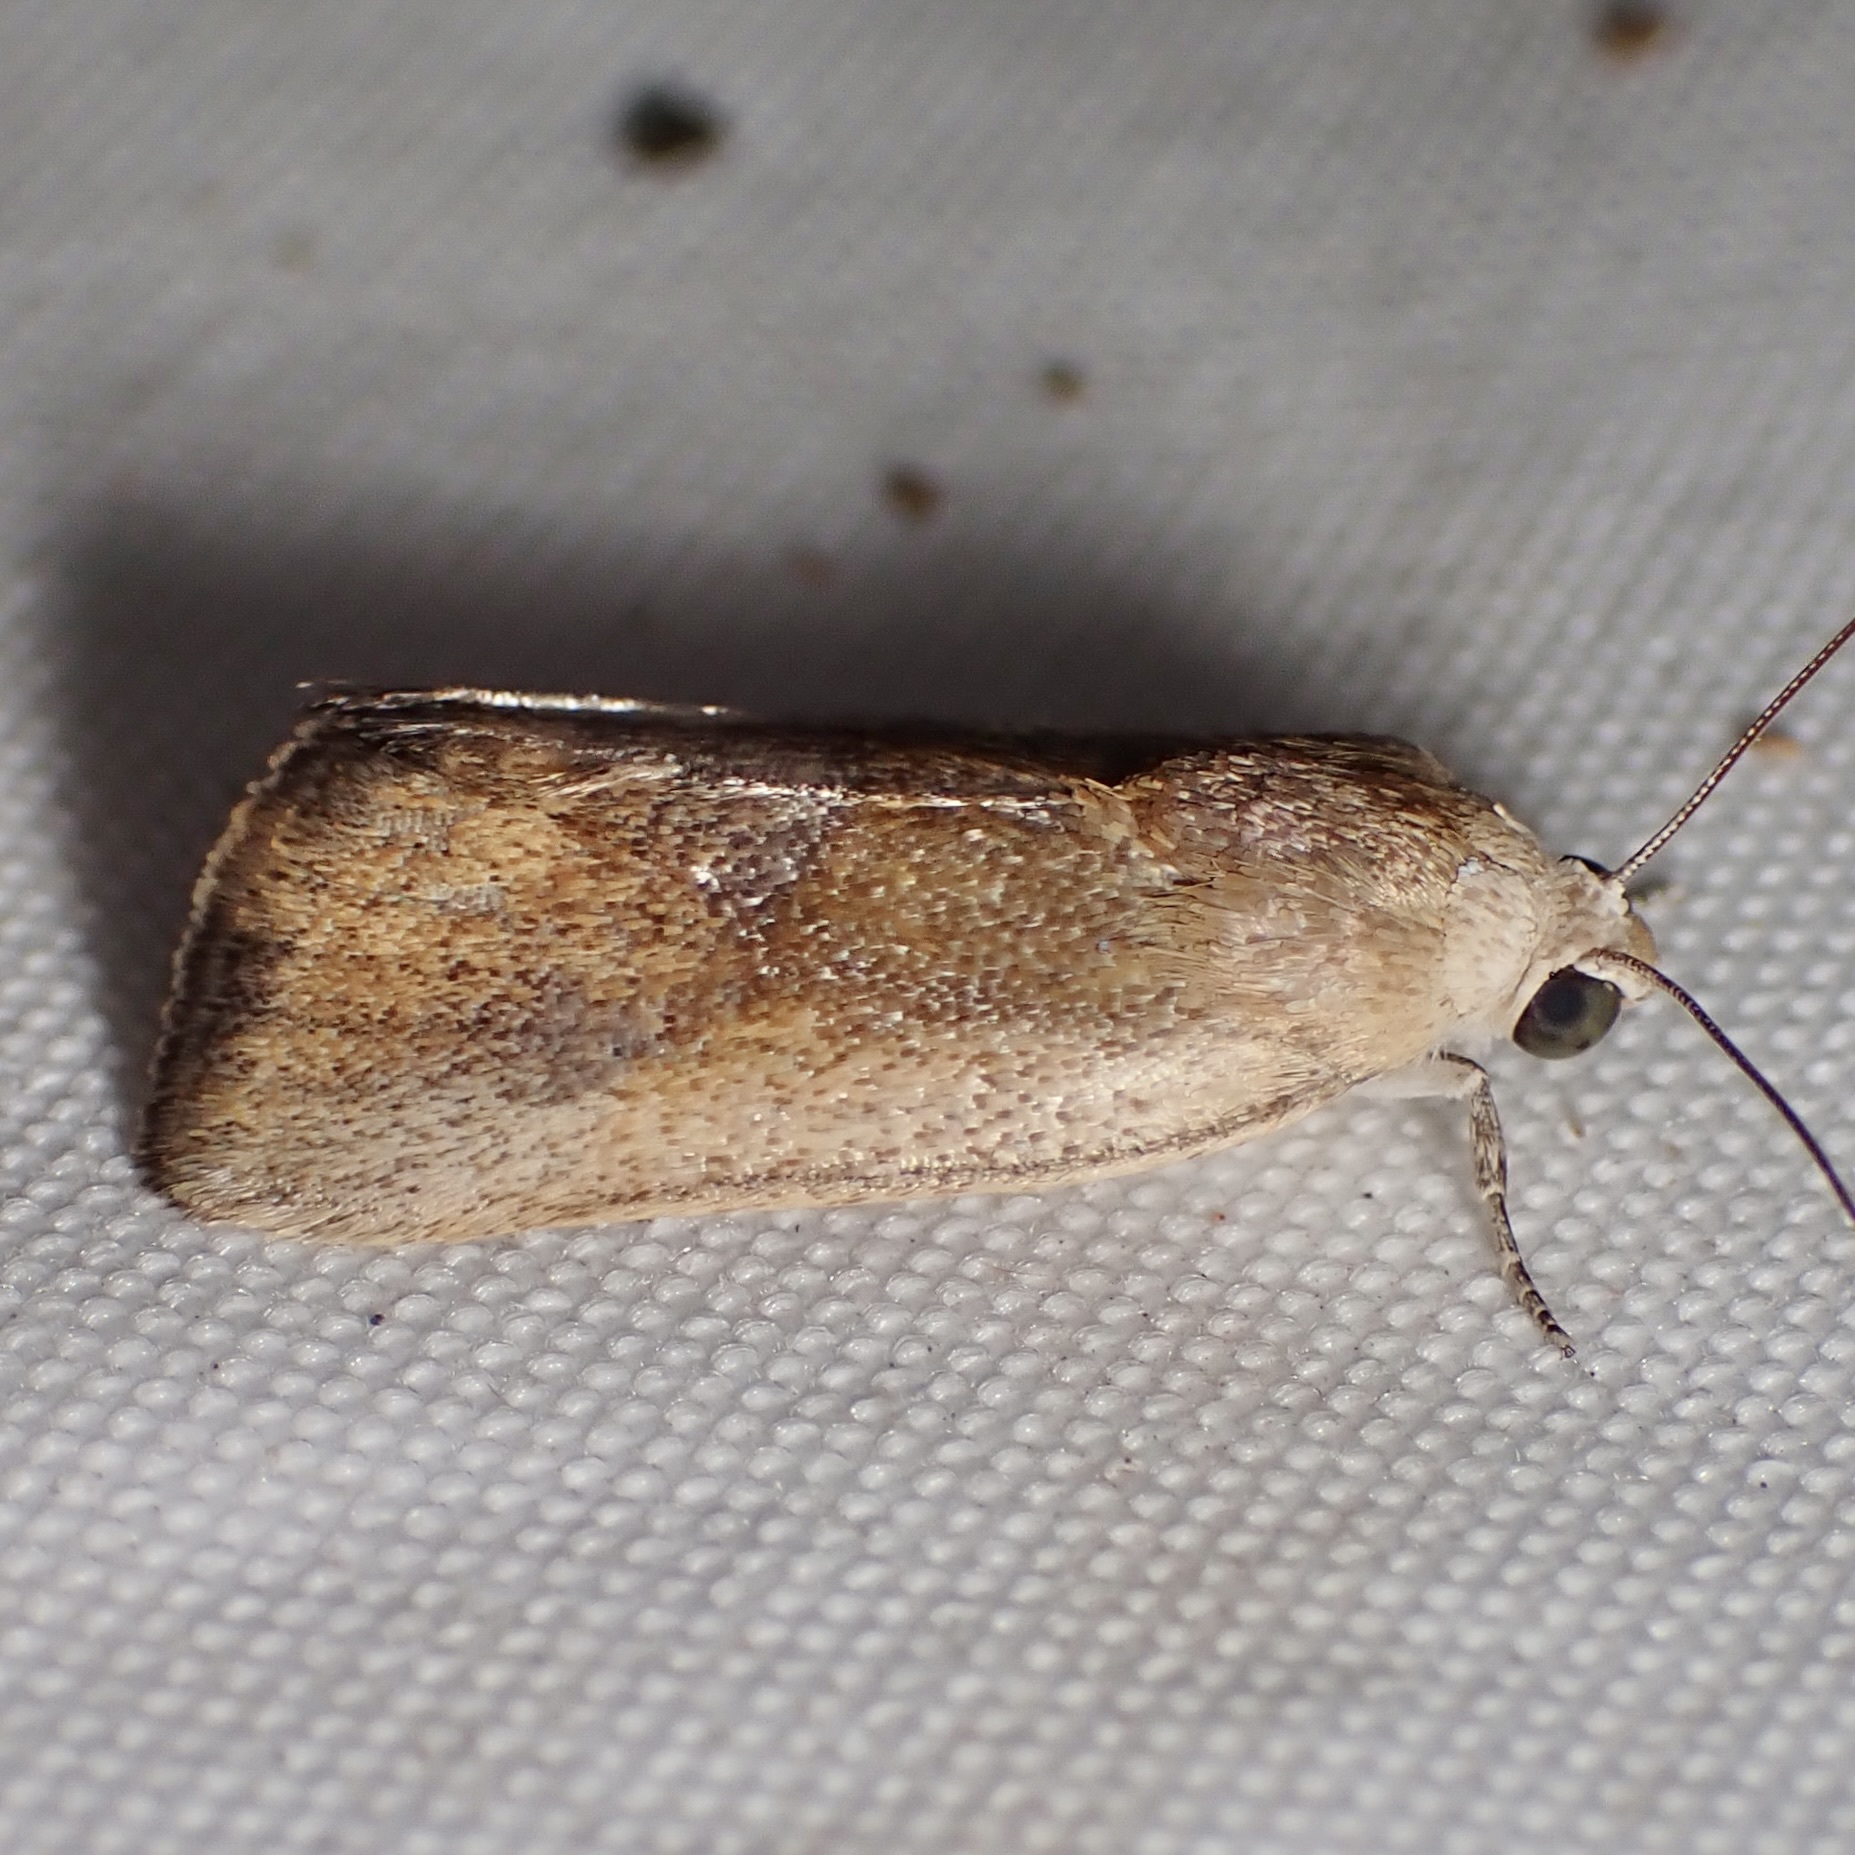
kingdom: Animalia
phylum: Arthropoda
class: Insecta
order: Lepidoptera
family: Noctuidae
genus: Acontia
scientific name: Acontia fasciatella
